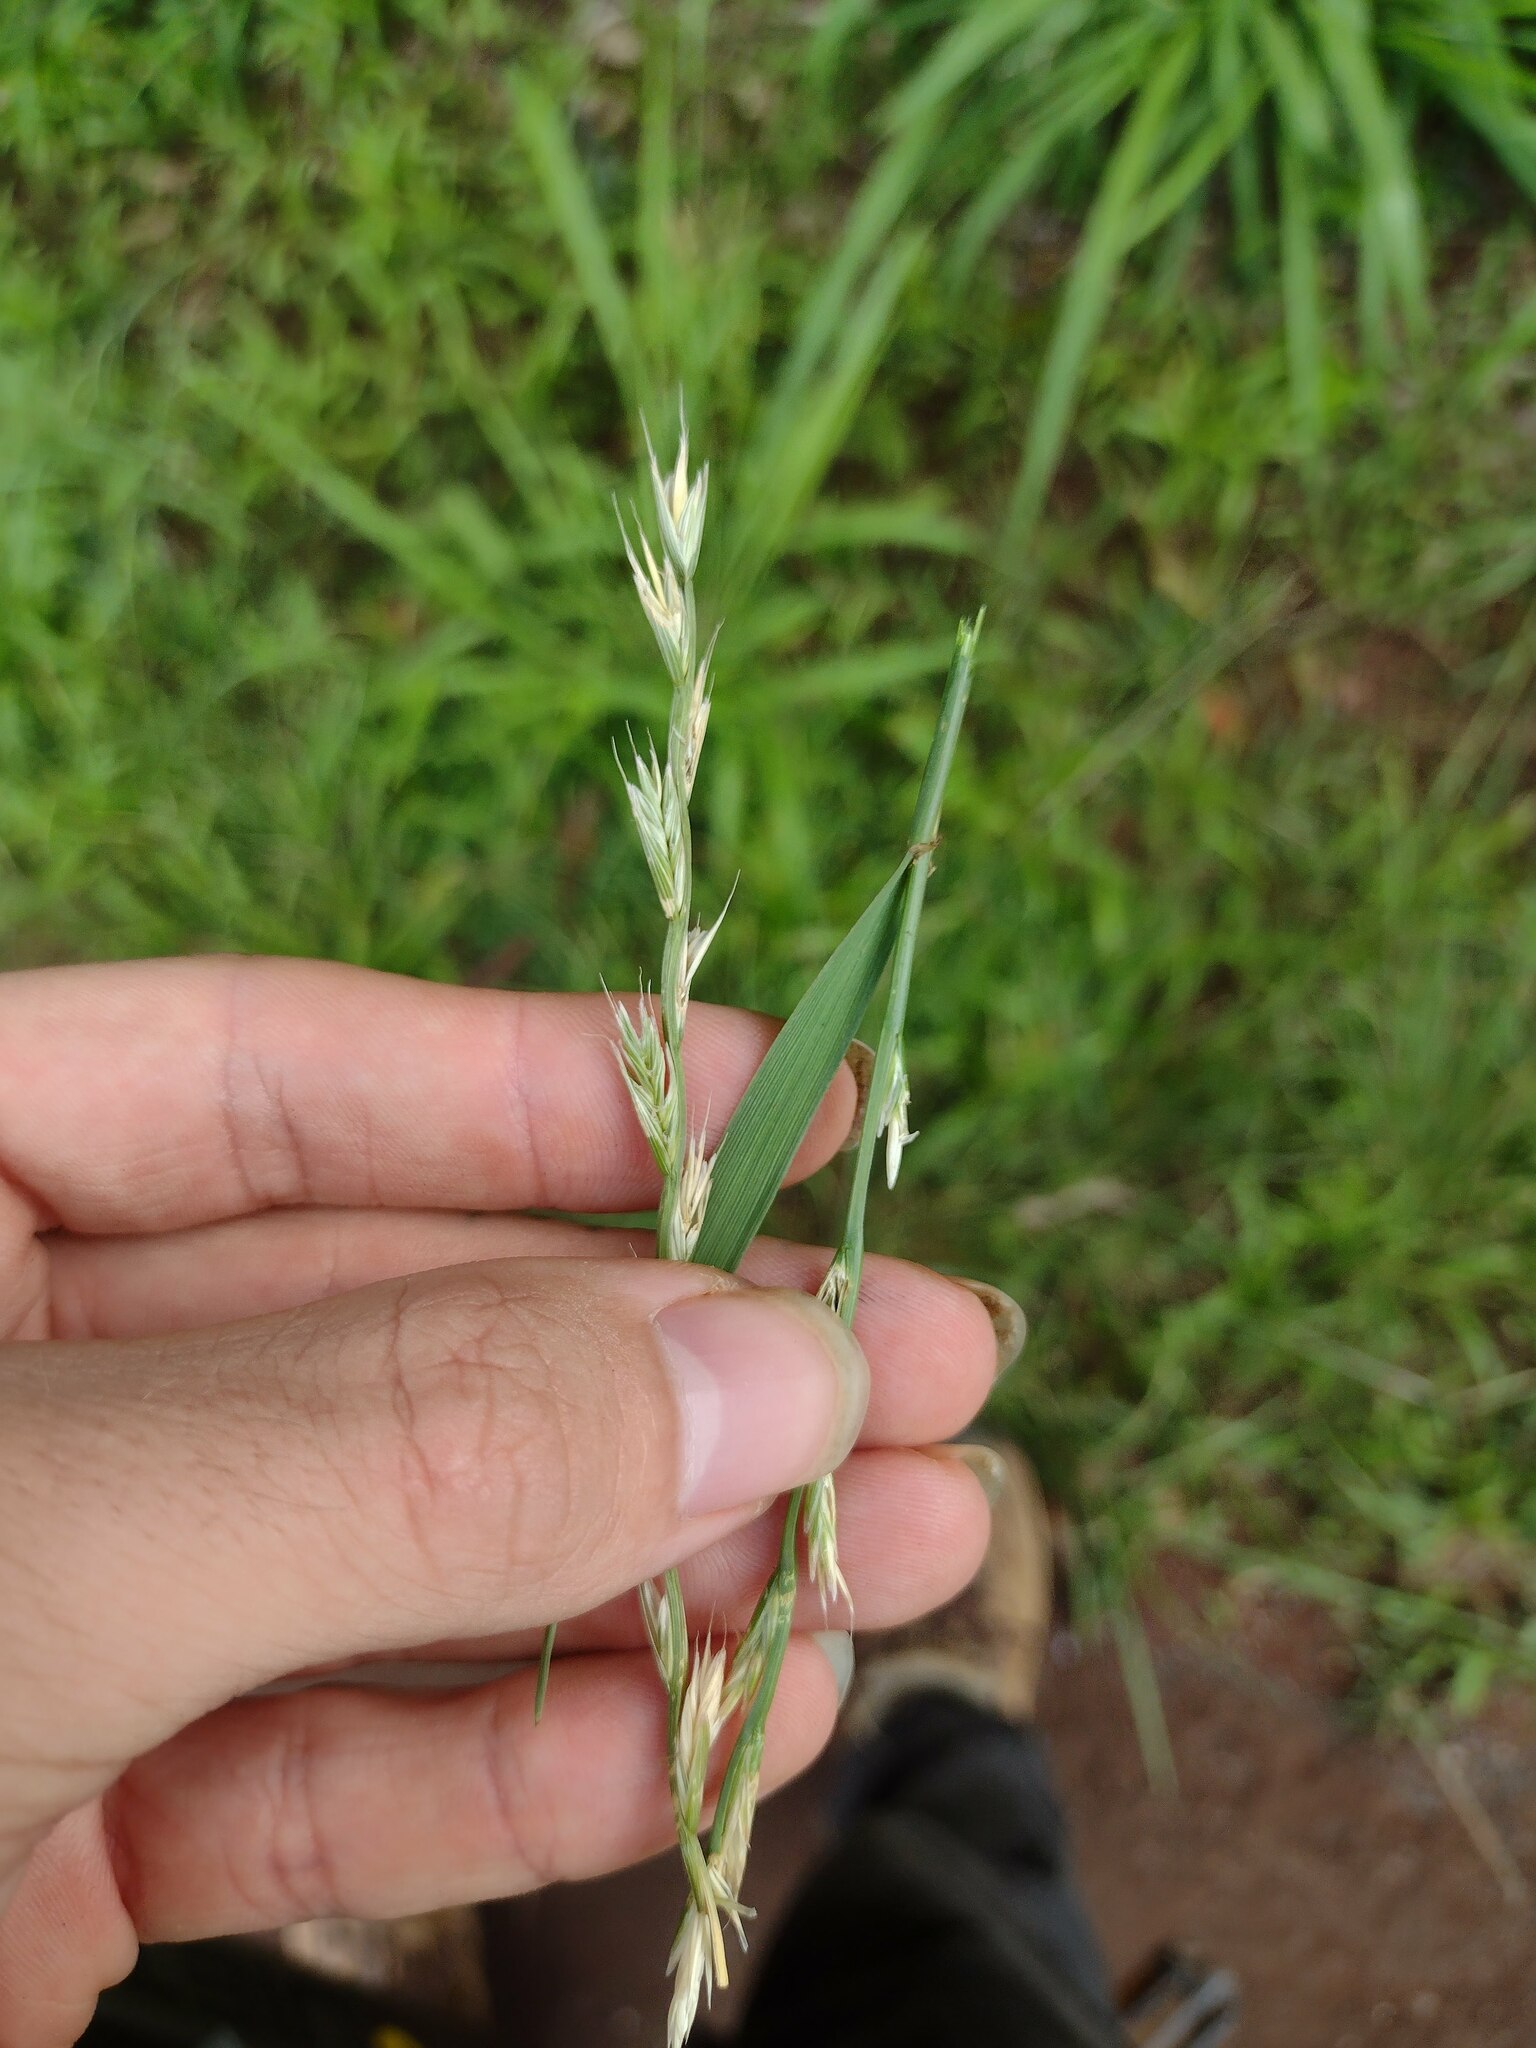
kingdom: Plantae
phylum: Tracheophyta
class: Liliopsida
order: Poales
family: Poaceae
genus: Lolium
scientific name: Lolium multiflorum
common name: Annual ryegrass
